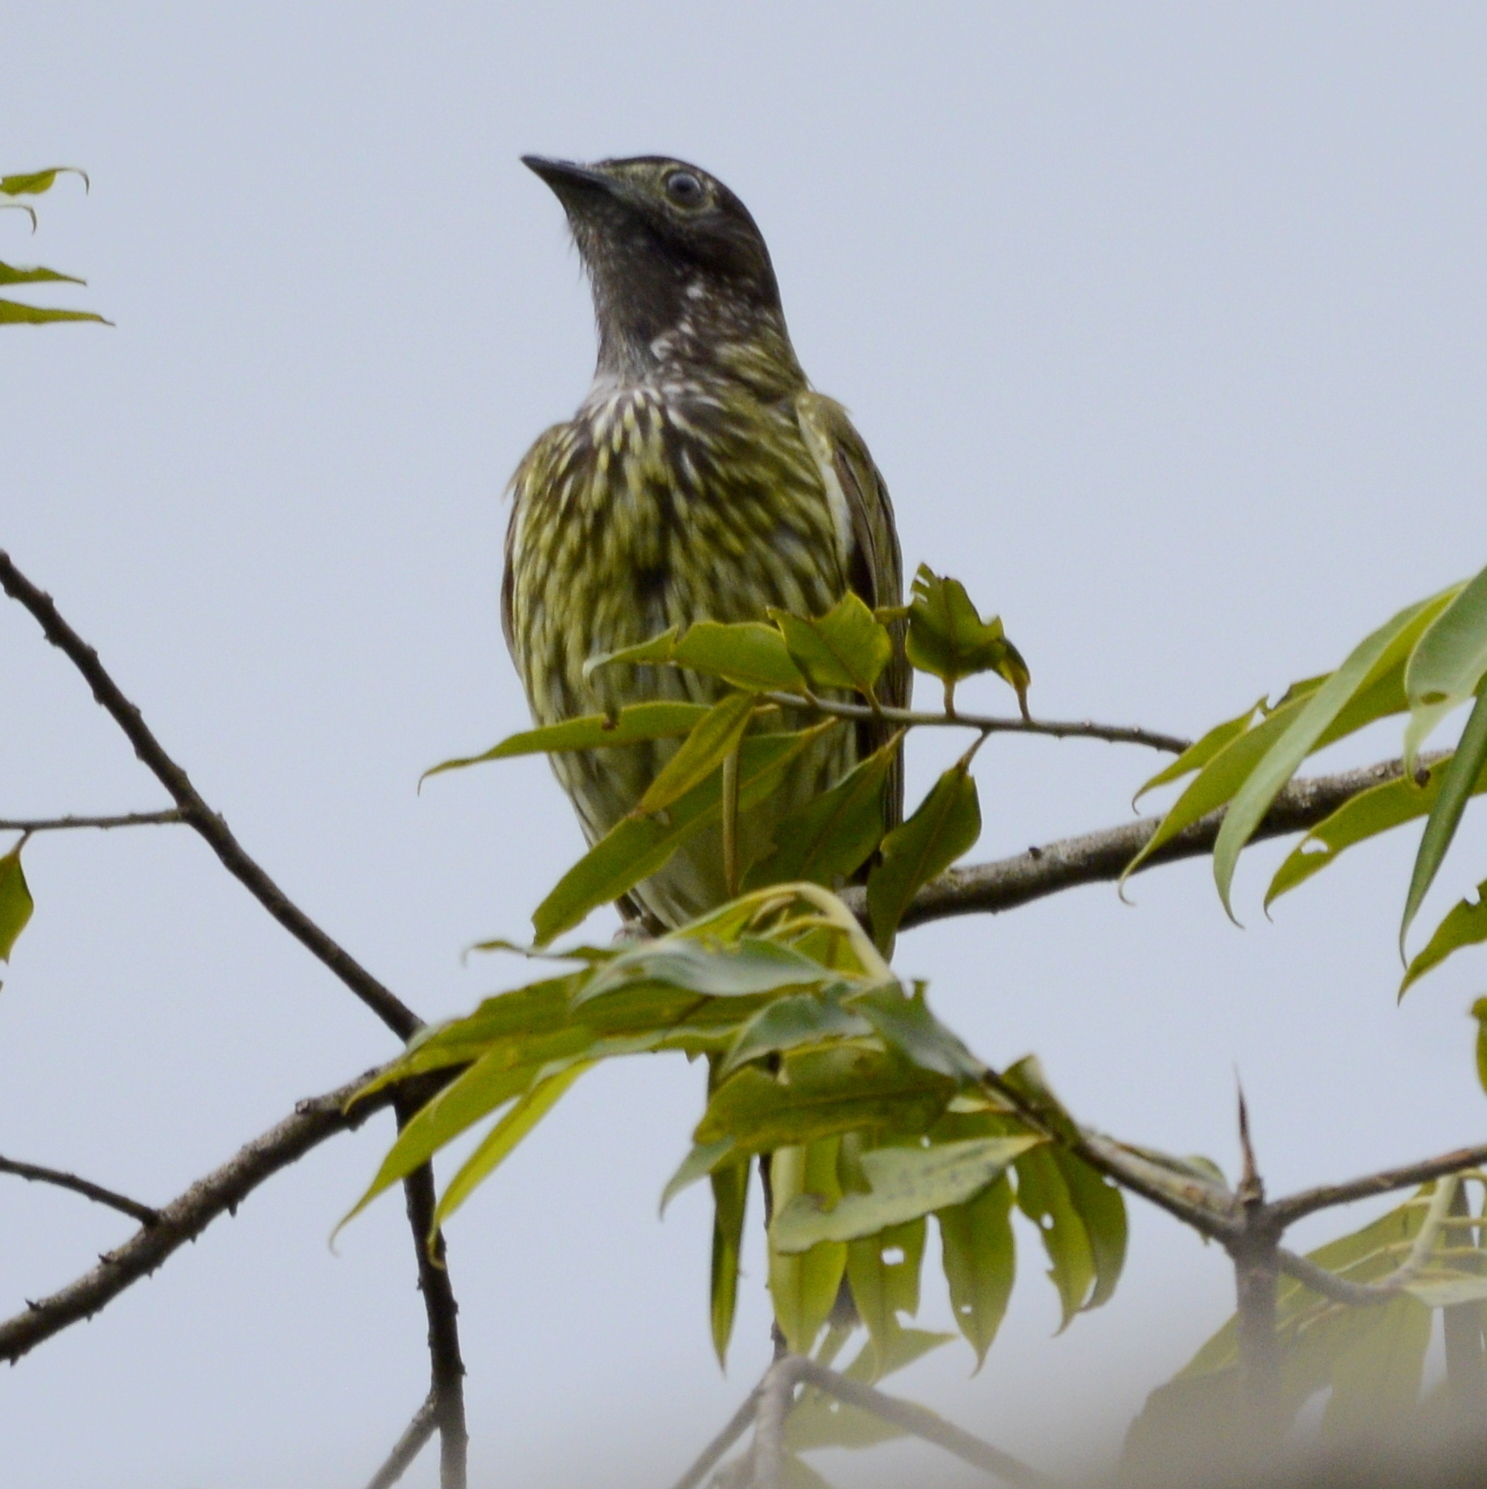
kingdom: Animalia
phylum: Chordata
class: Aves
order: Passeriformes
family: Cotingidae
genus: Procnias
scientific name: Procnias nudicollis
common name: Bare-throated bellbird
